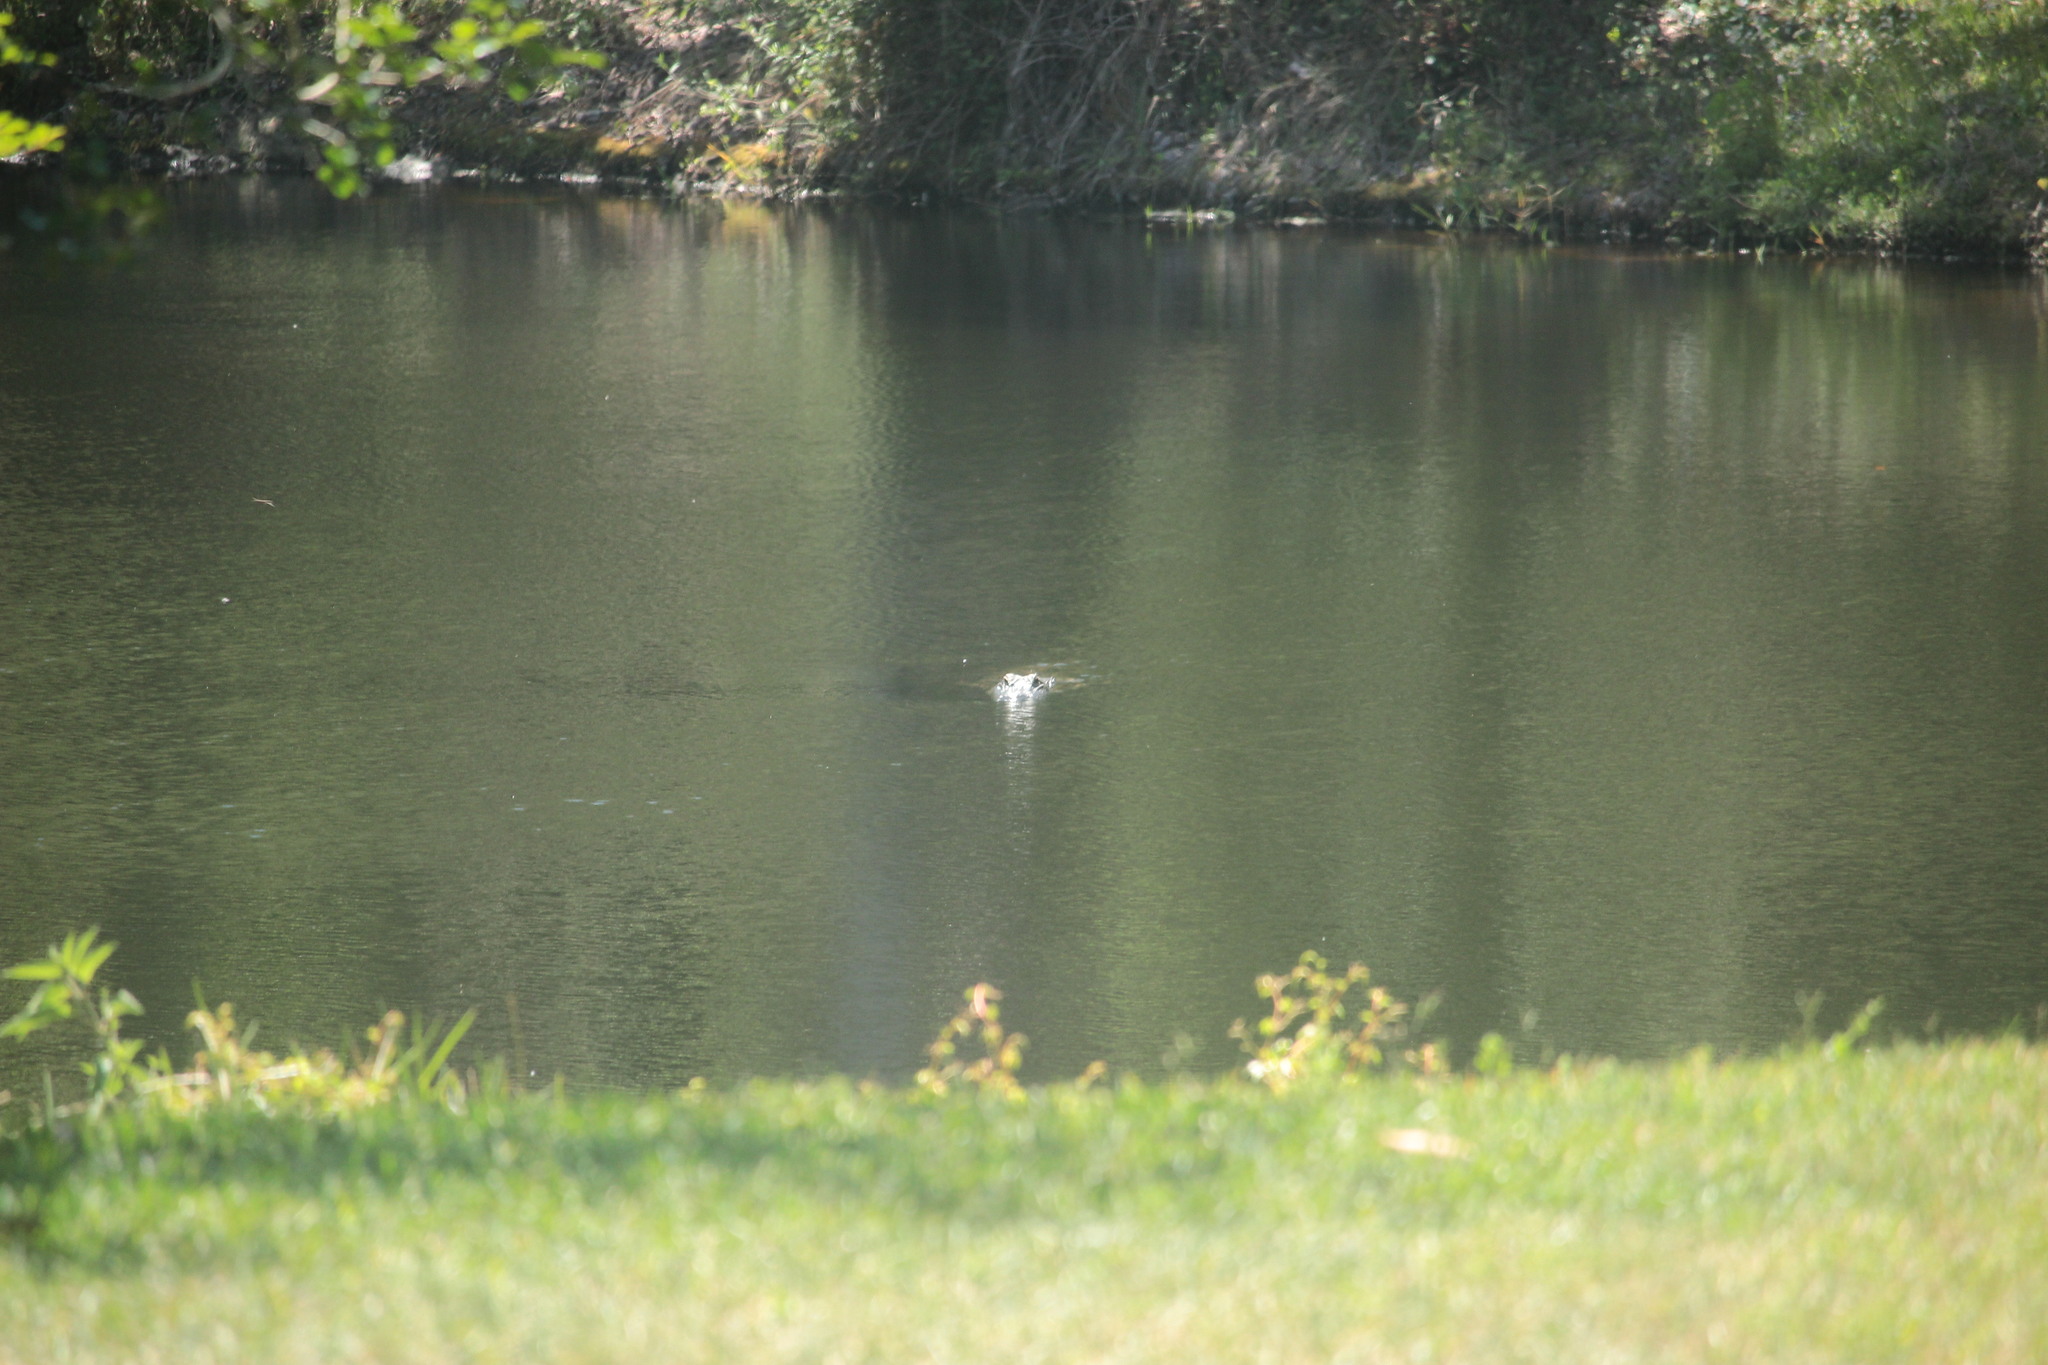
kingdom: Animalia
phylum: Chordata
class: Crocodylia
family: Alligatoridae
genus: Alligator
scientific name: Alligator mississippiensis
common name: American alligator
